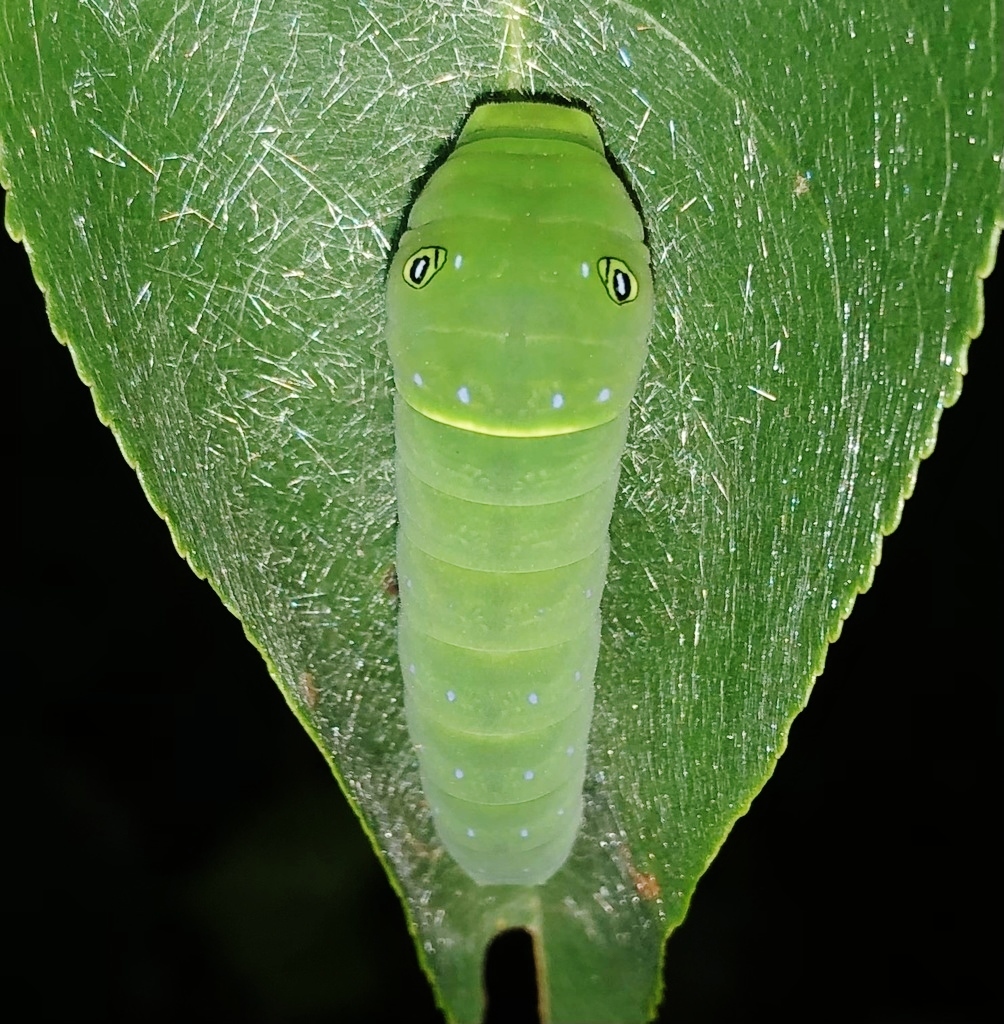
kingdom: Animalia
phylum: Arthropoda
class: Insecta
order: Lepidoptera
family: Papilionidae
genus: Papilio
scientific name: Papilio glaucus
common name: Tiger swallowtail
